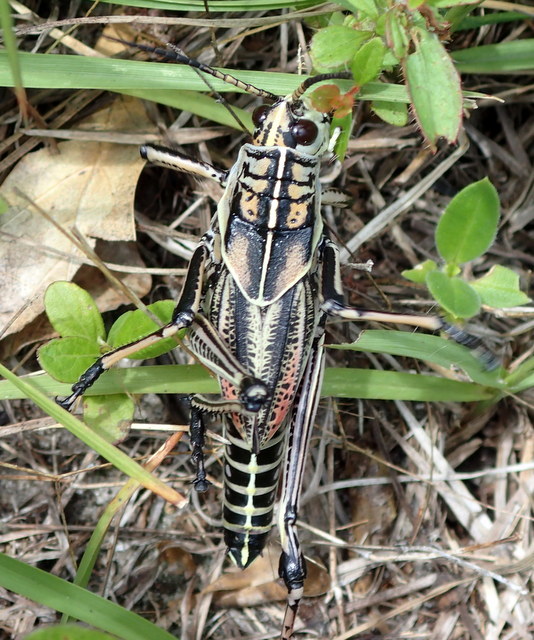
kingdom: Animalia
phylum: Arthropoda
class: Insecta
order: Orthoptera
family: Romaleidae
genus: Romalea
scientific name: Romalea microptera
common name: Eastern lubber grasshopper
